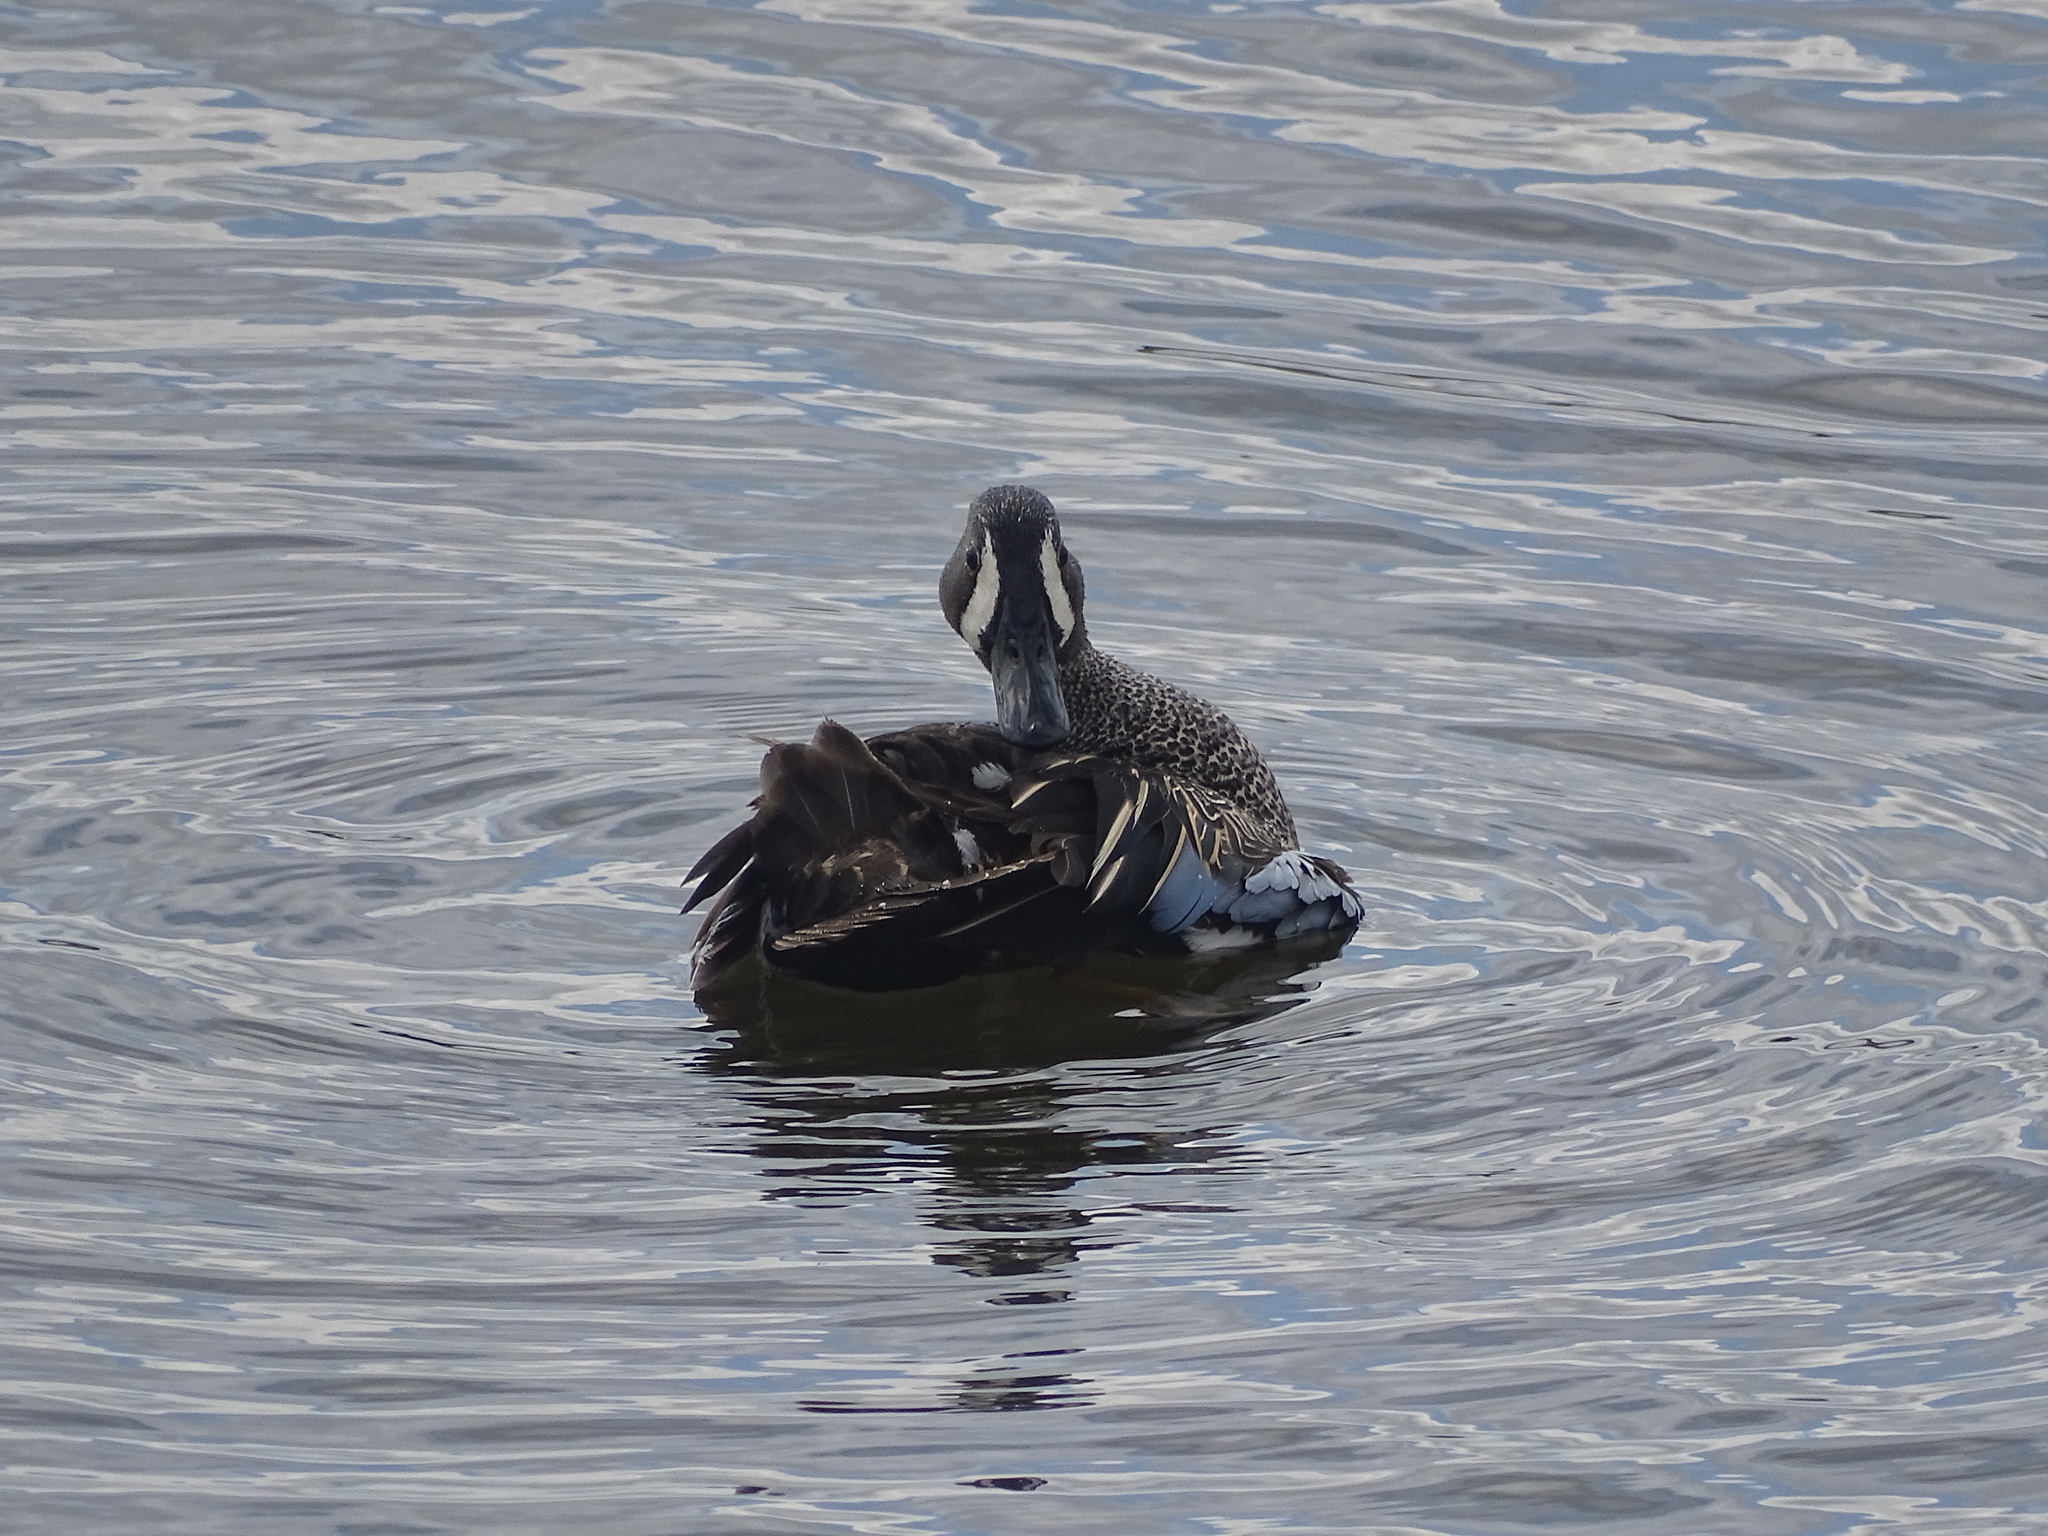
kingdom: Animalia
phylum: Chordata
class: Aves
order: Anseriformes
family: Anatidae
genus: Spatula
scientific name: Spatula discors
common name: Blue-winged teal
